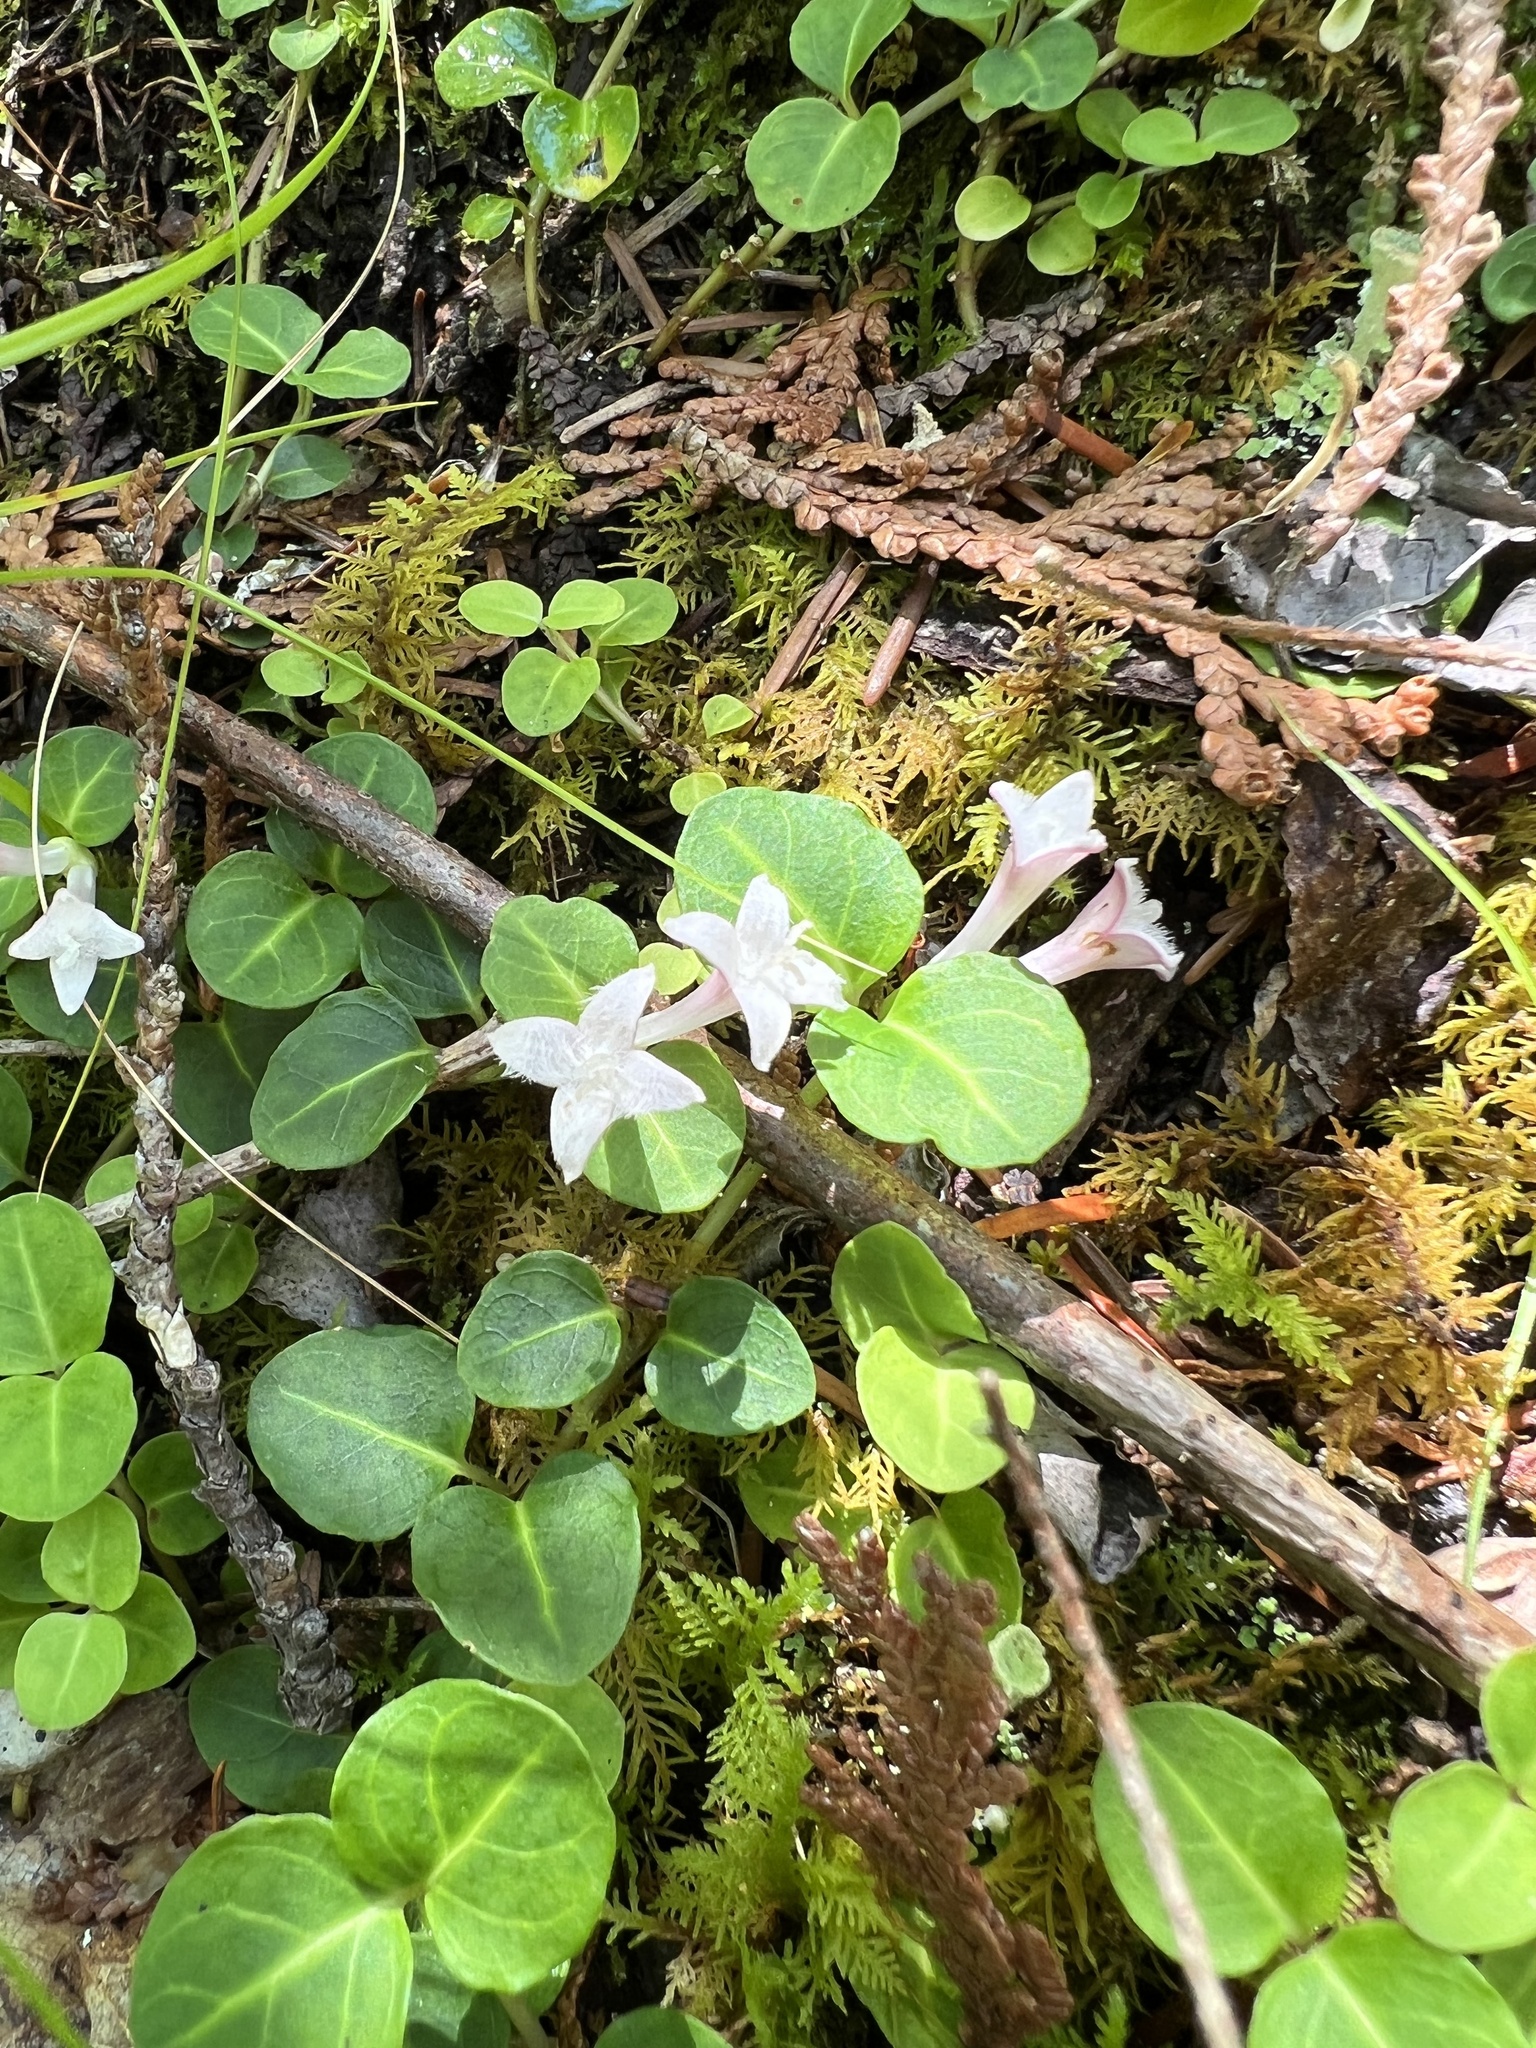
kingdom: Plantae
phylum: Tracheophyta
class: Magnoliopsida
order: Gentianales
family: Rubiaceae
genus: Mitchella
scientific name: Mitchella repens
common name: Partridge-berry
